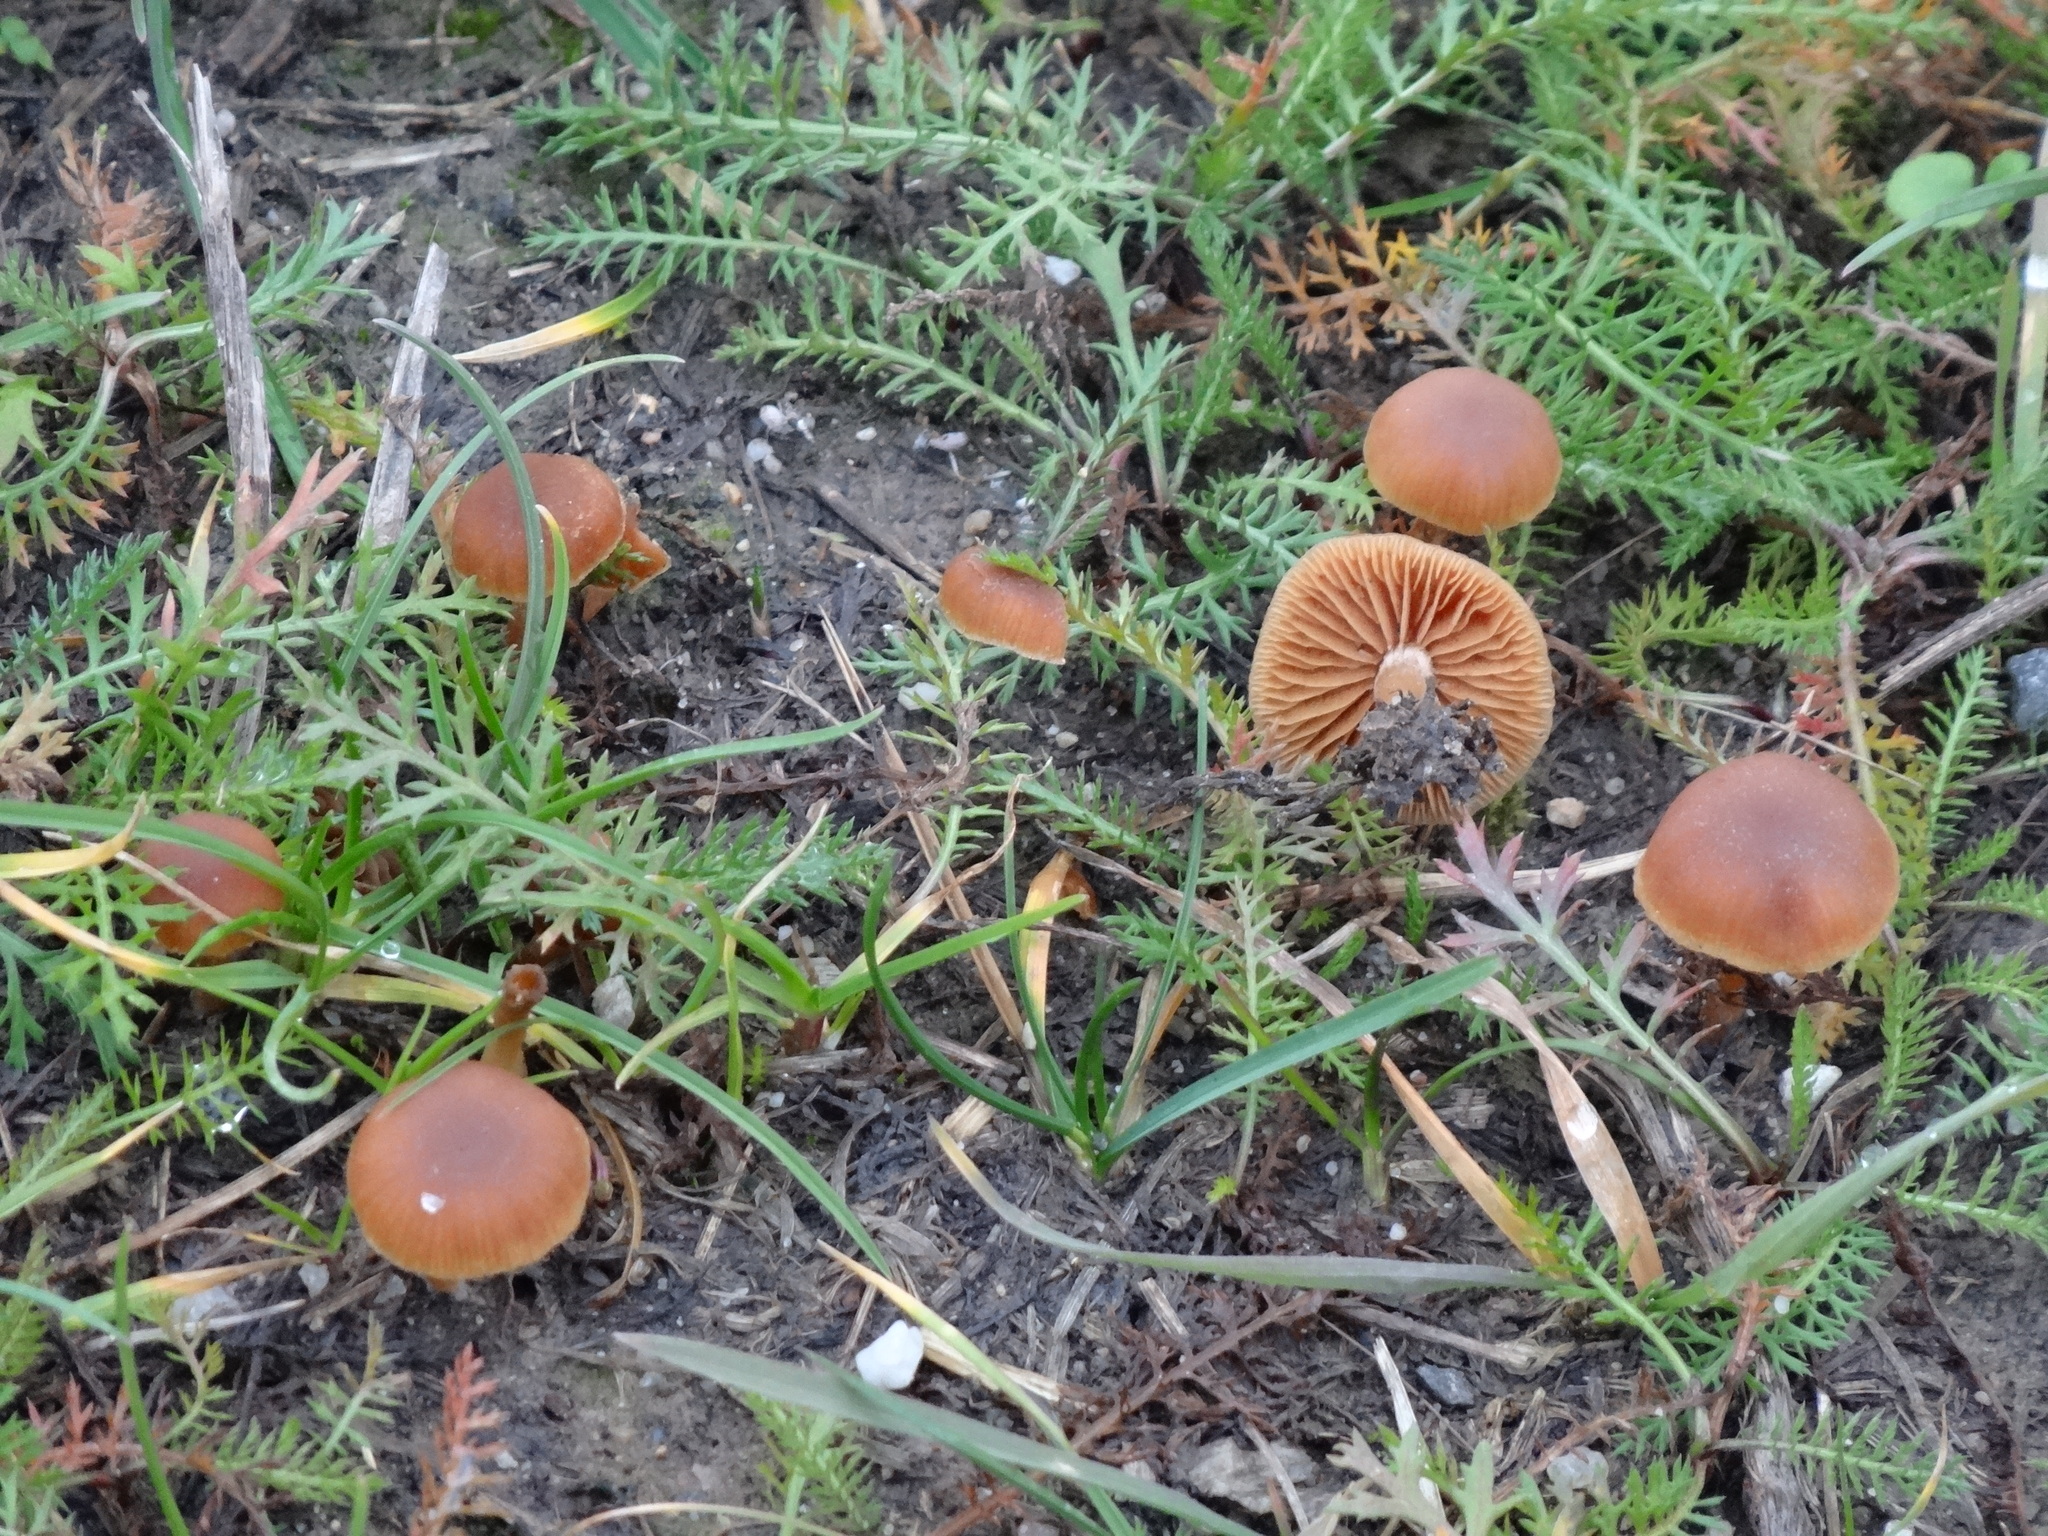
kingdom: Fungi
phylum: Basidiomycota
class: Agaricomycetes
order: Agaricales
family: Hymenogastraceae
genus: Galerina
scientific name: Galerina marginata
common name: Funeral bell
